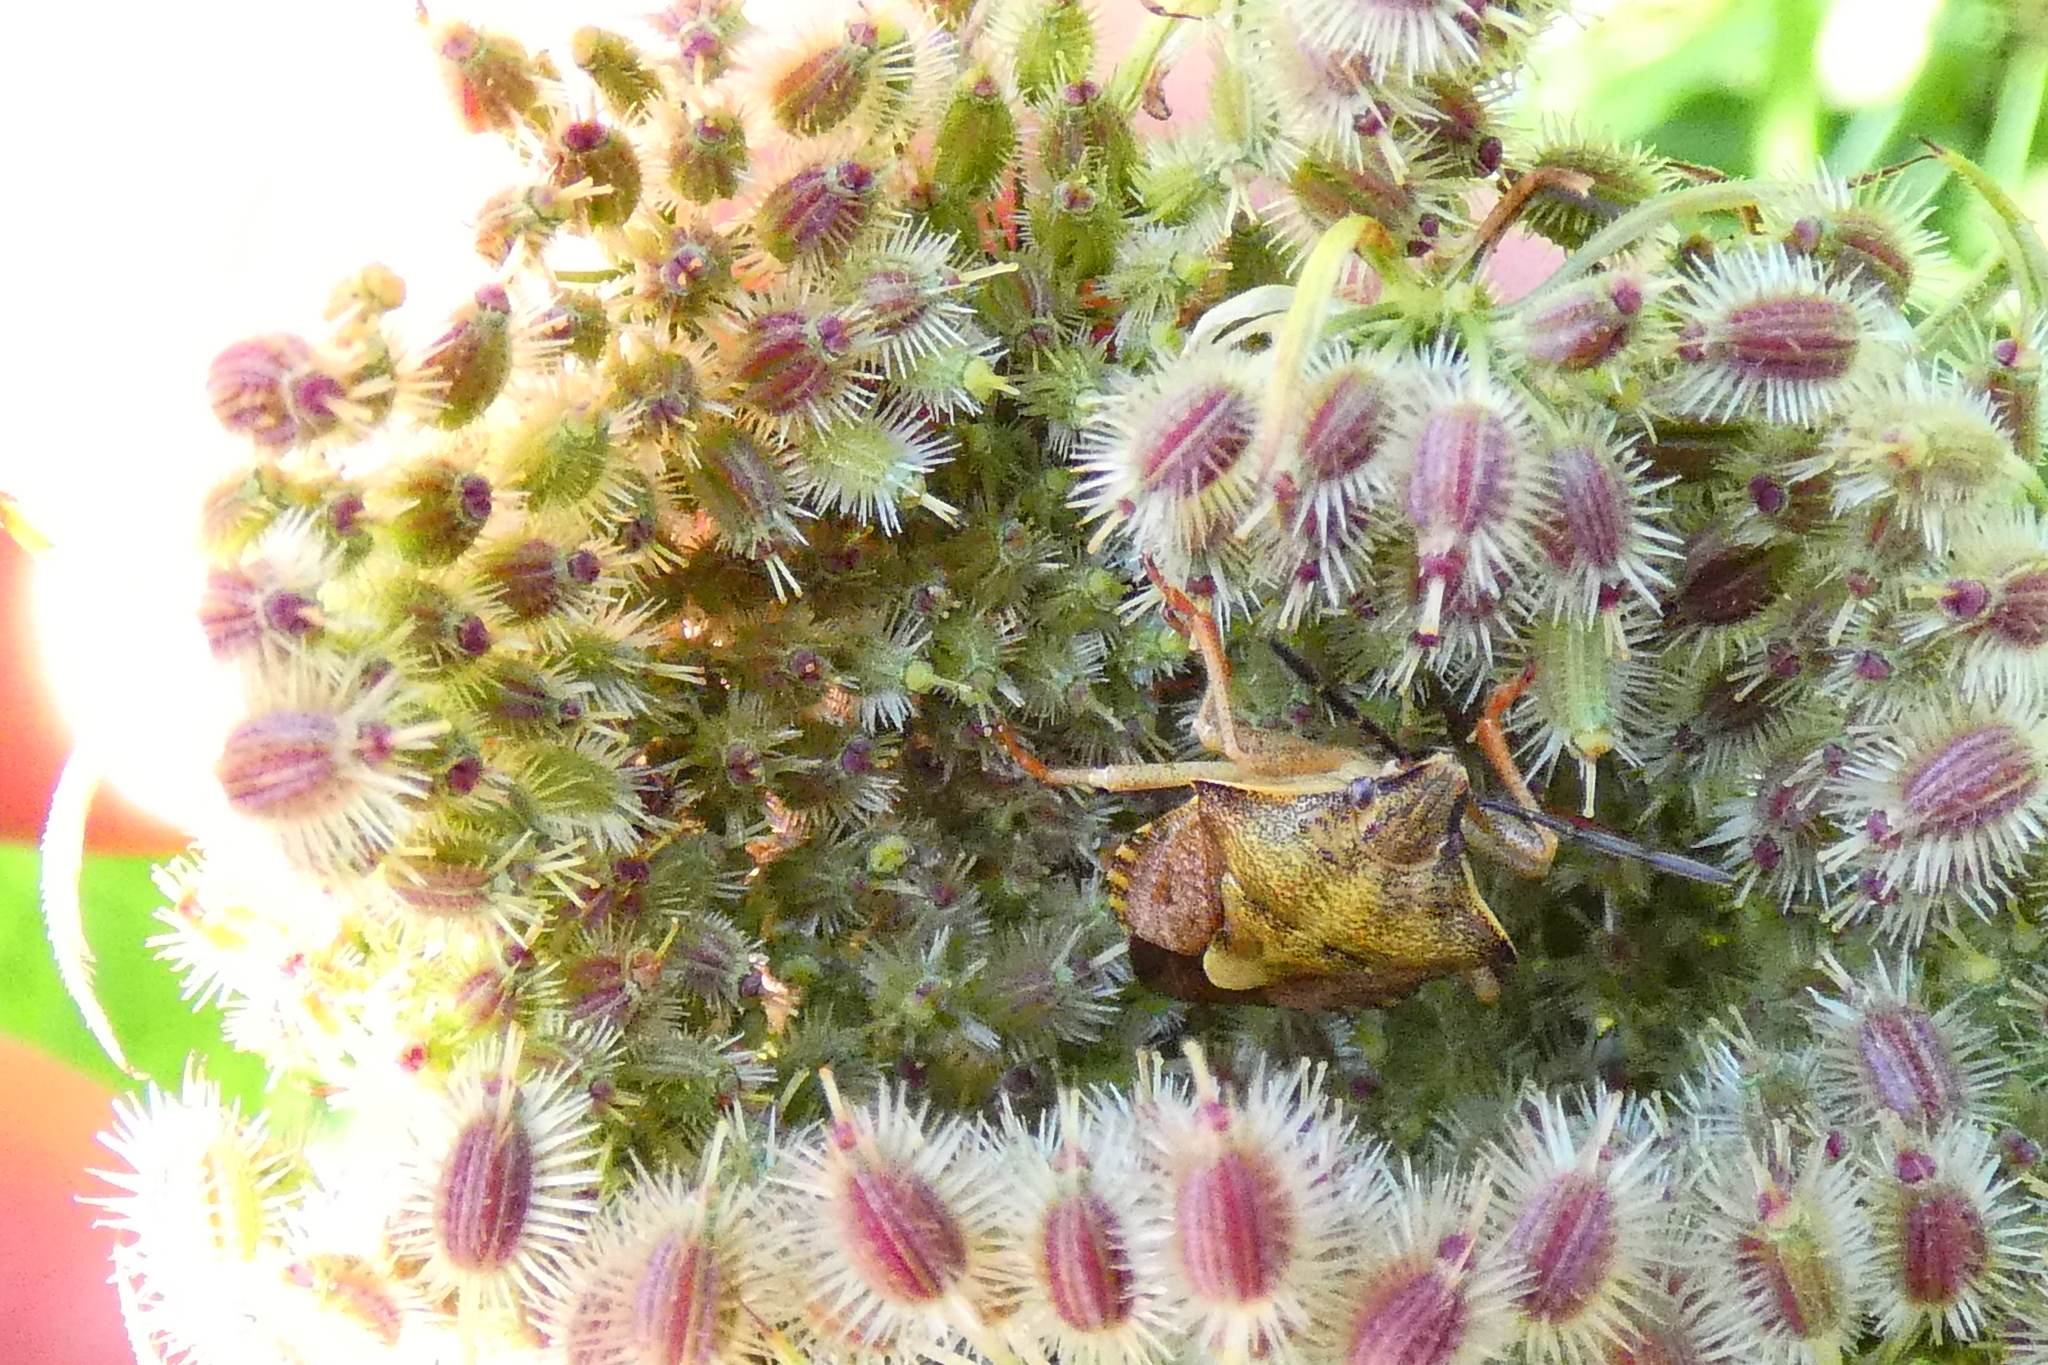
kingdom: Animalia
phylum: Arthropoda
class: Insecta
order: Hemiptera
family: Pentatomidae
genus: Carpocoris
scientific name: Carpocoris purpureipennis
